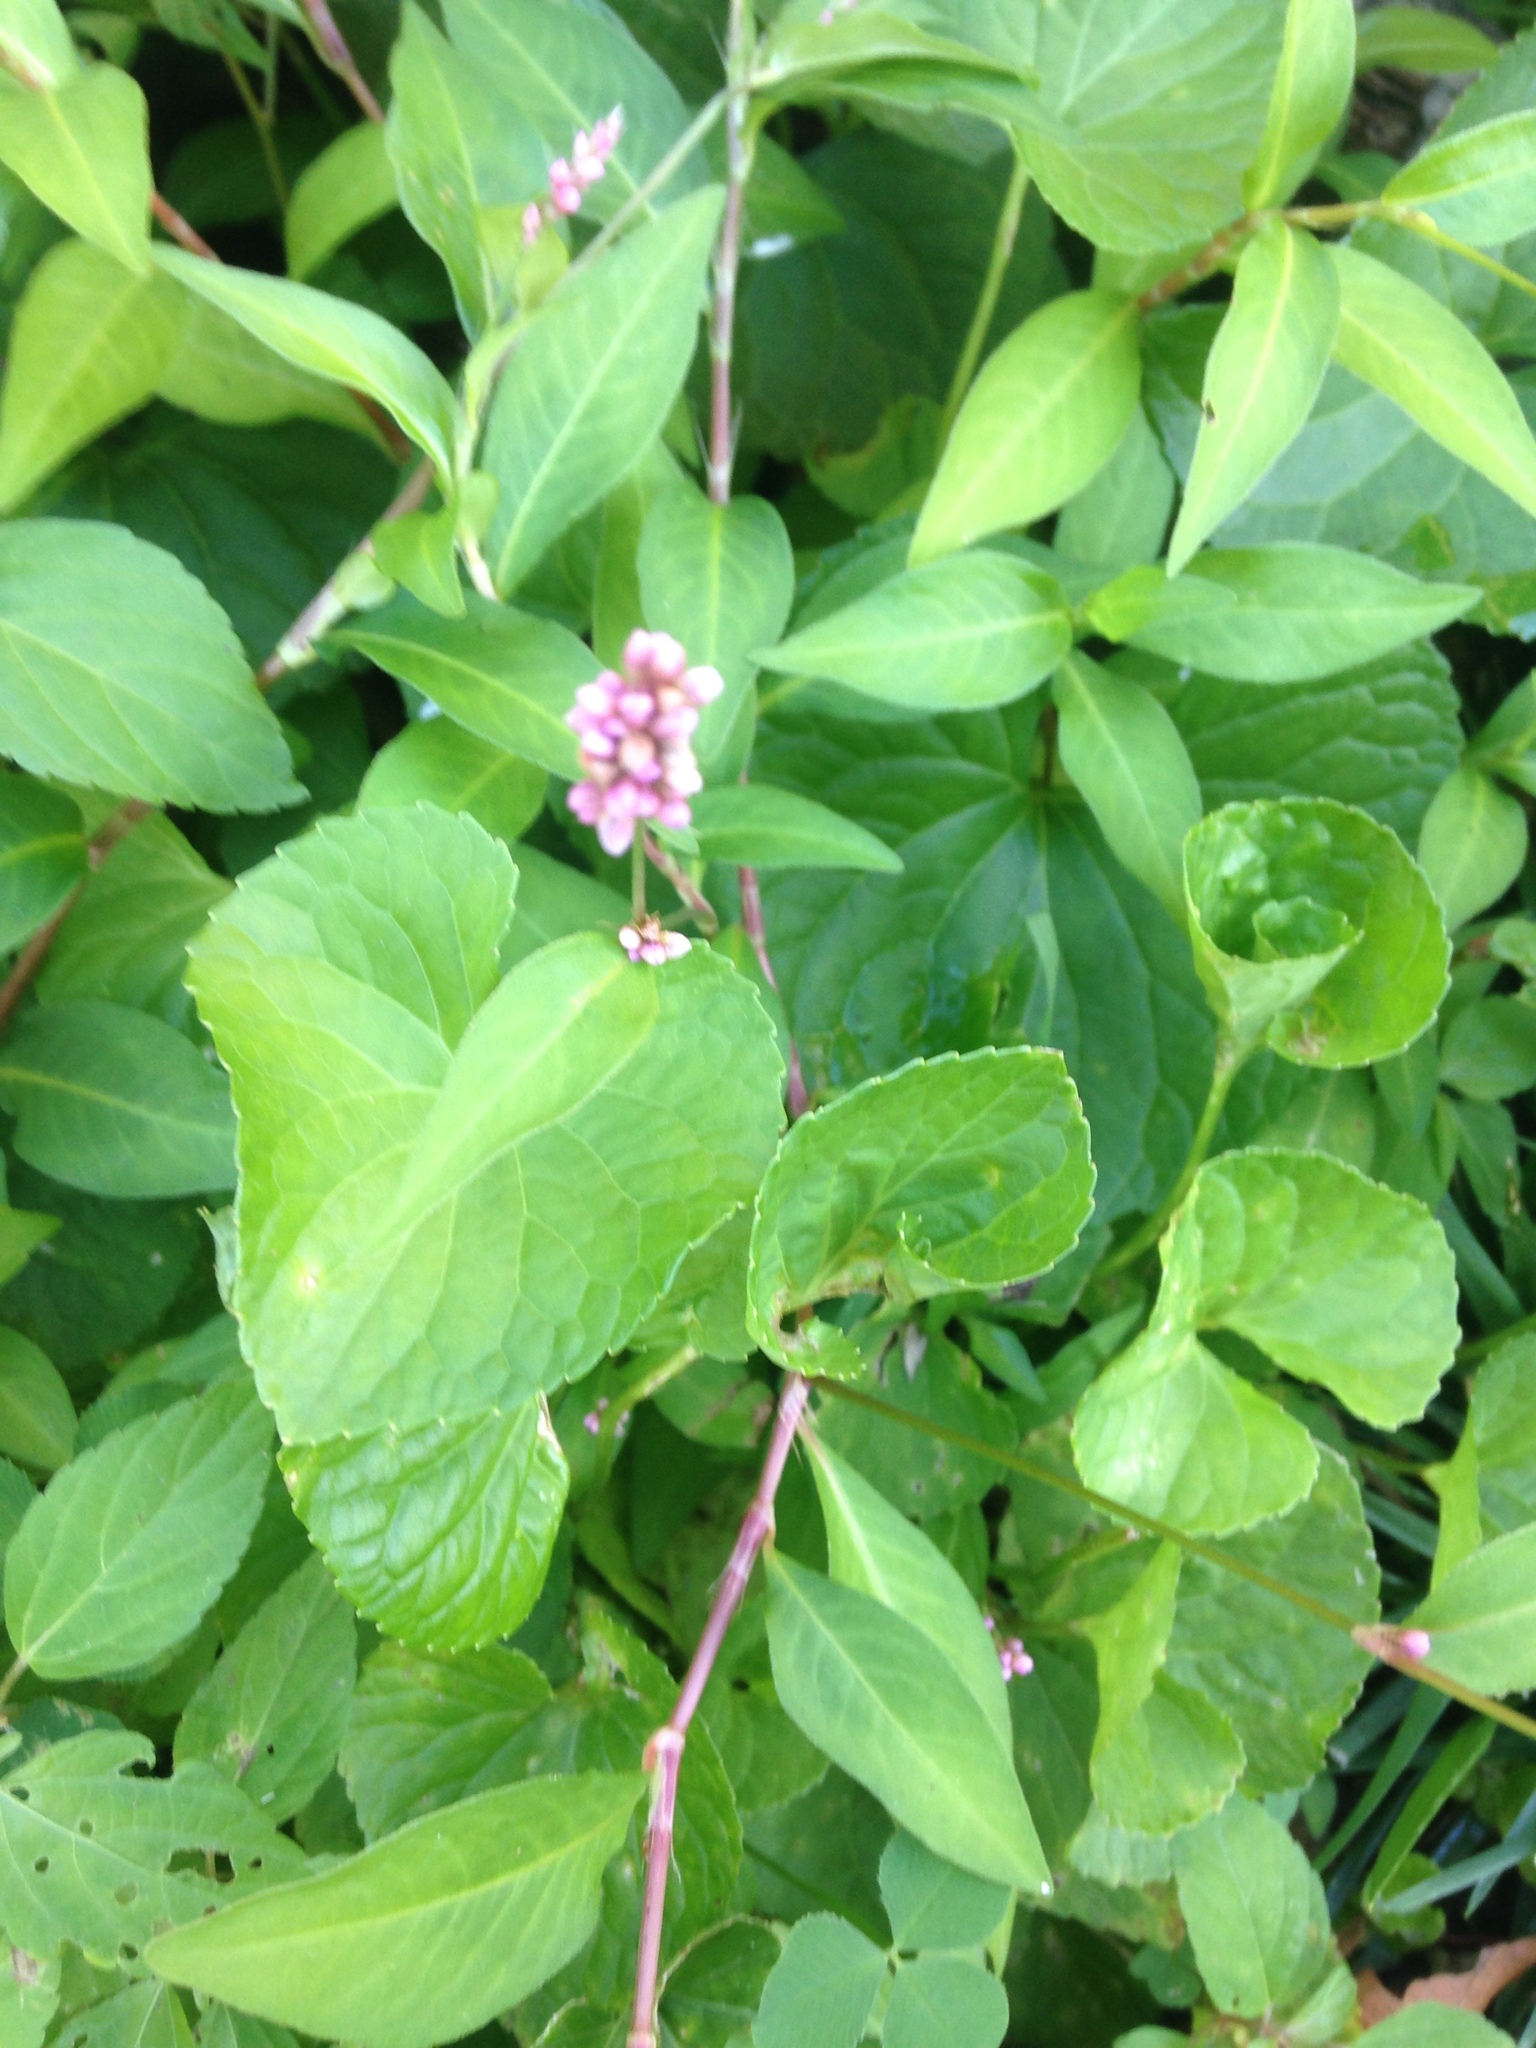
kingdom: Plantae
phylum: Tracheophyta
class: Magnoliopsida
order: Caryophyllales
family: Polygonaceae
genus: Persicaria
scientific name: Persicaria longiseta
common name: Bristly lady's-thumb
